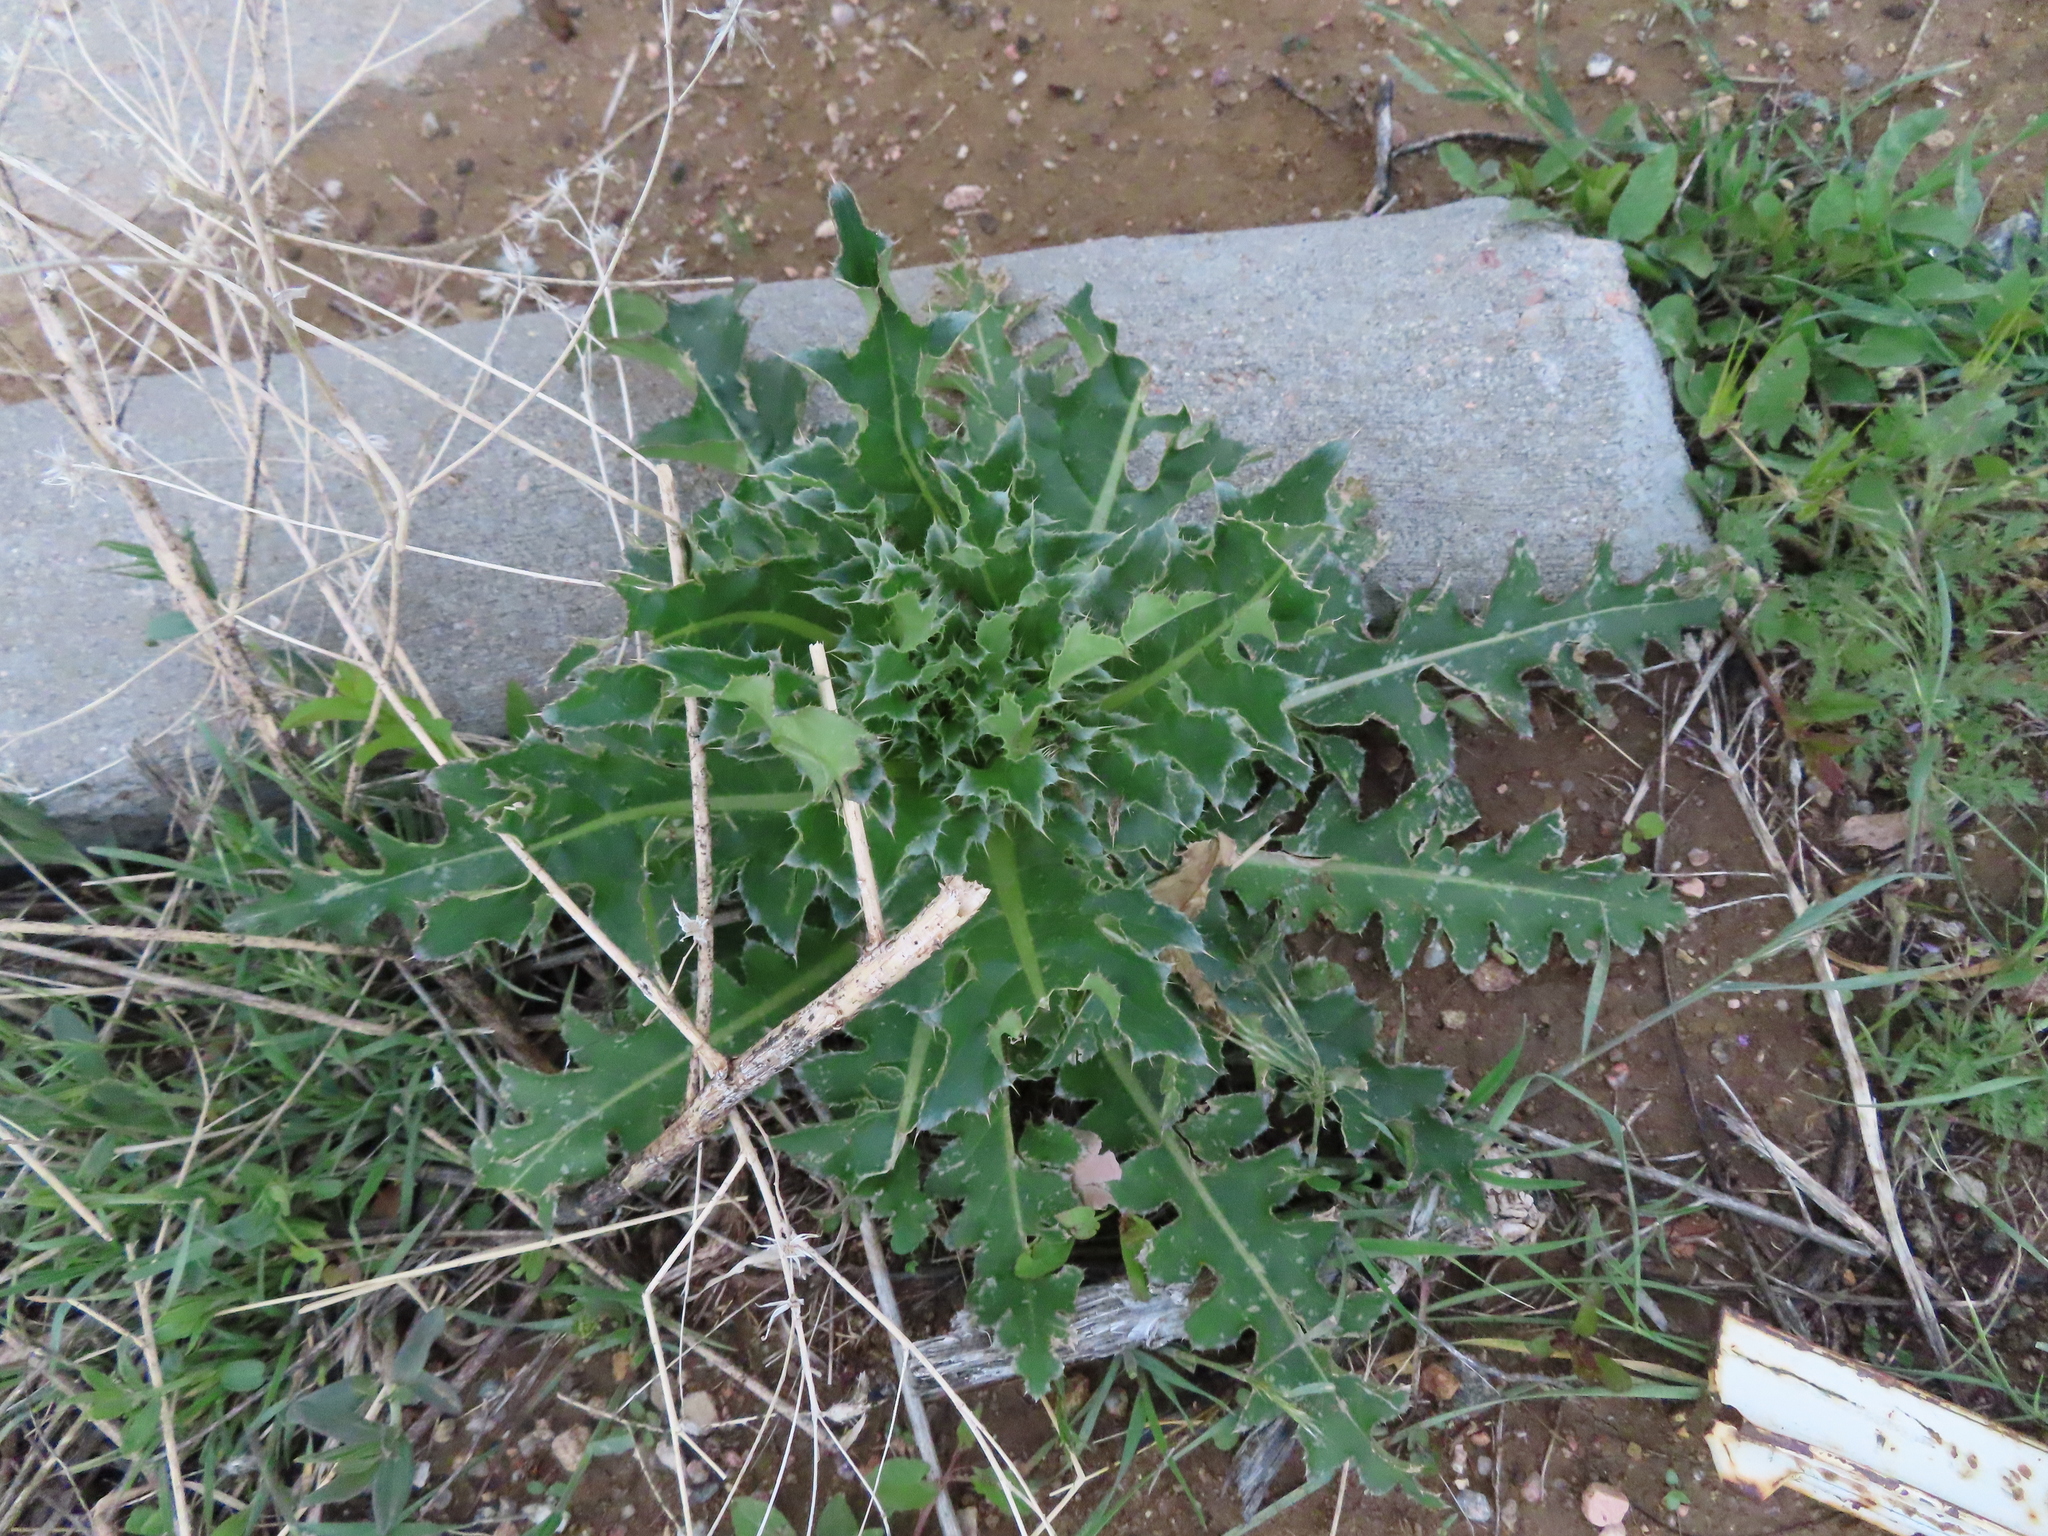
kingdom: Plantae
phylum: Tracheophyta
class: Magnoliopsida
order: Asterales
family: Asteraceae
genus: Carduus
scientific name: Carduus nutans
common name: Musk thistle
